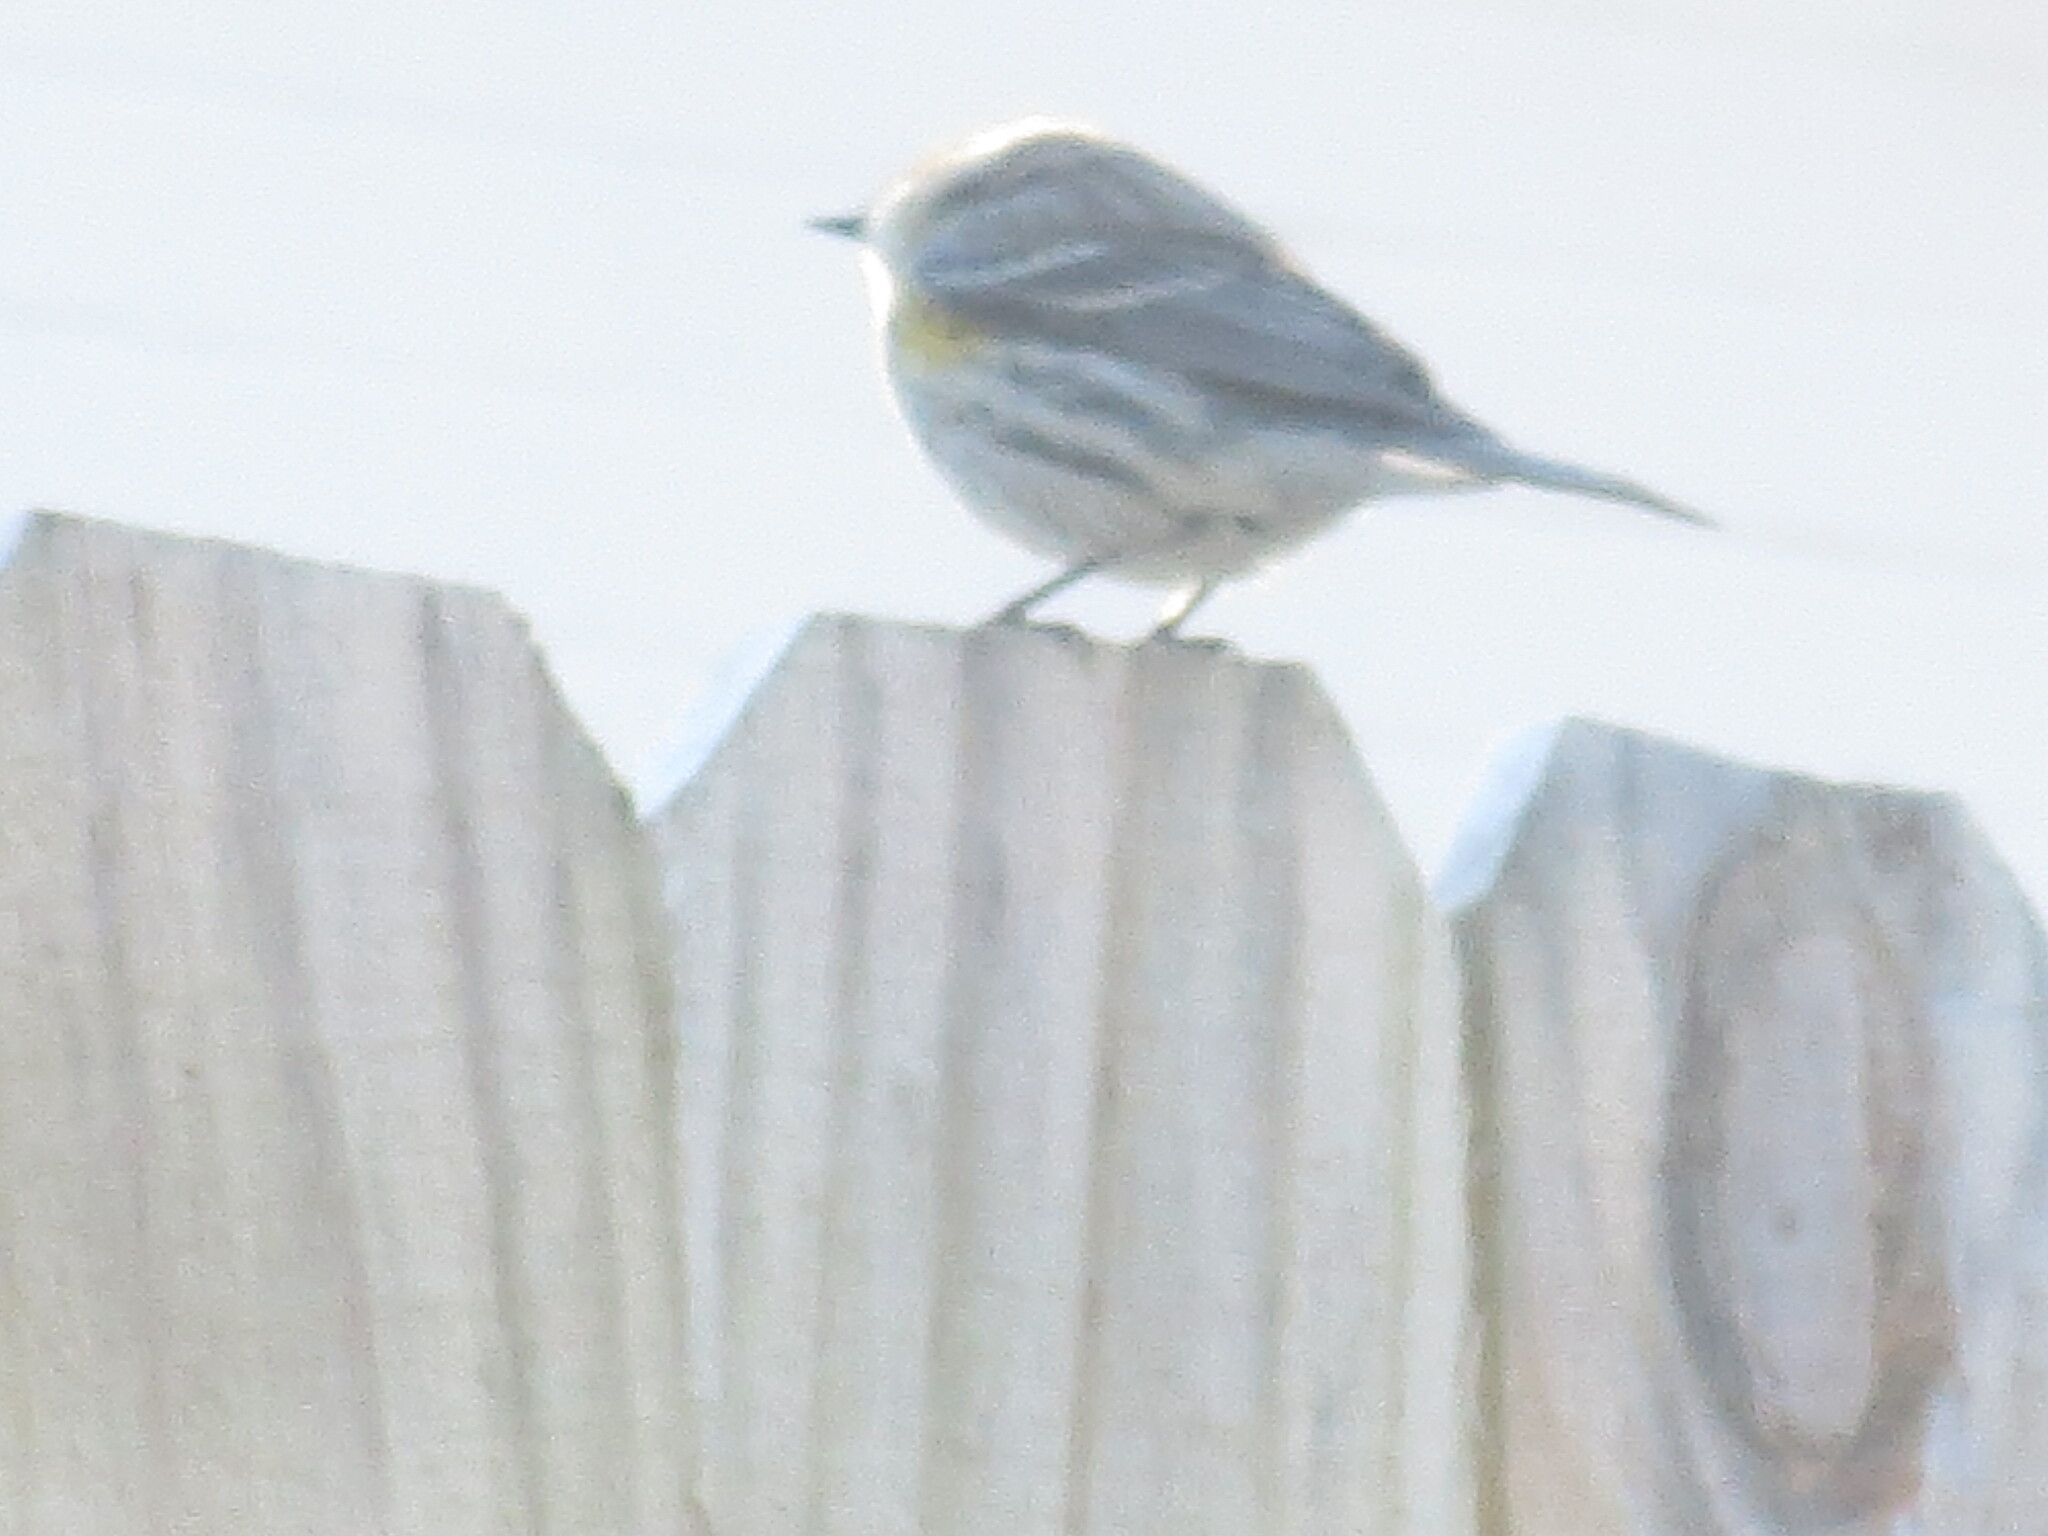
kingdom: Animalia
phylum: Chordata
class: Aves
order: Passeriformes
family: Parulidae
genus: Setophaga
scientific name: Setophaga coronata
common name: Myrtle warbler
